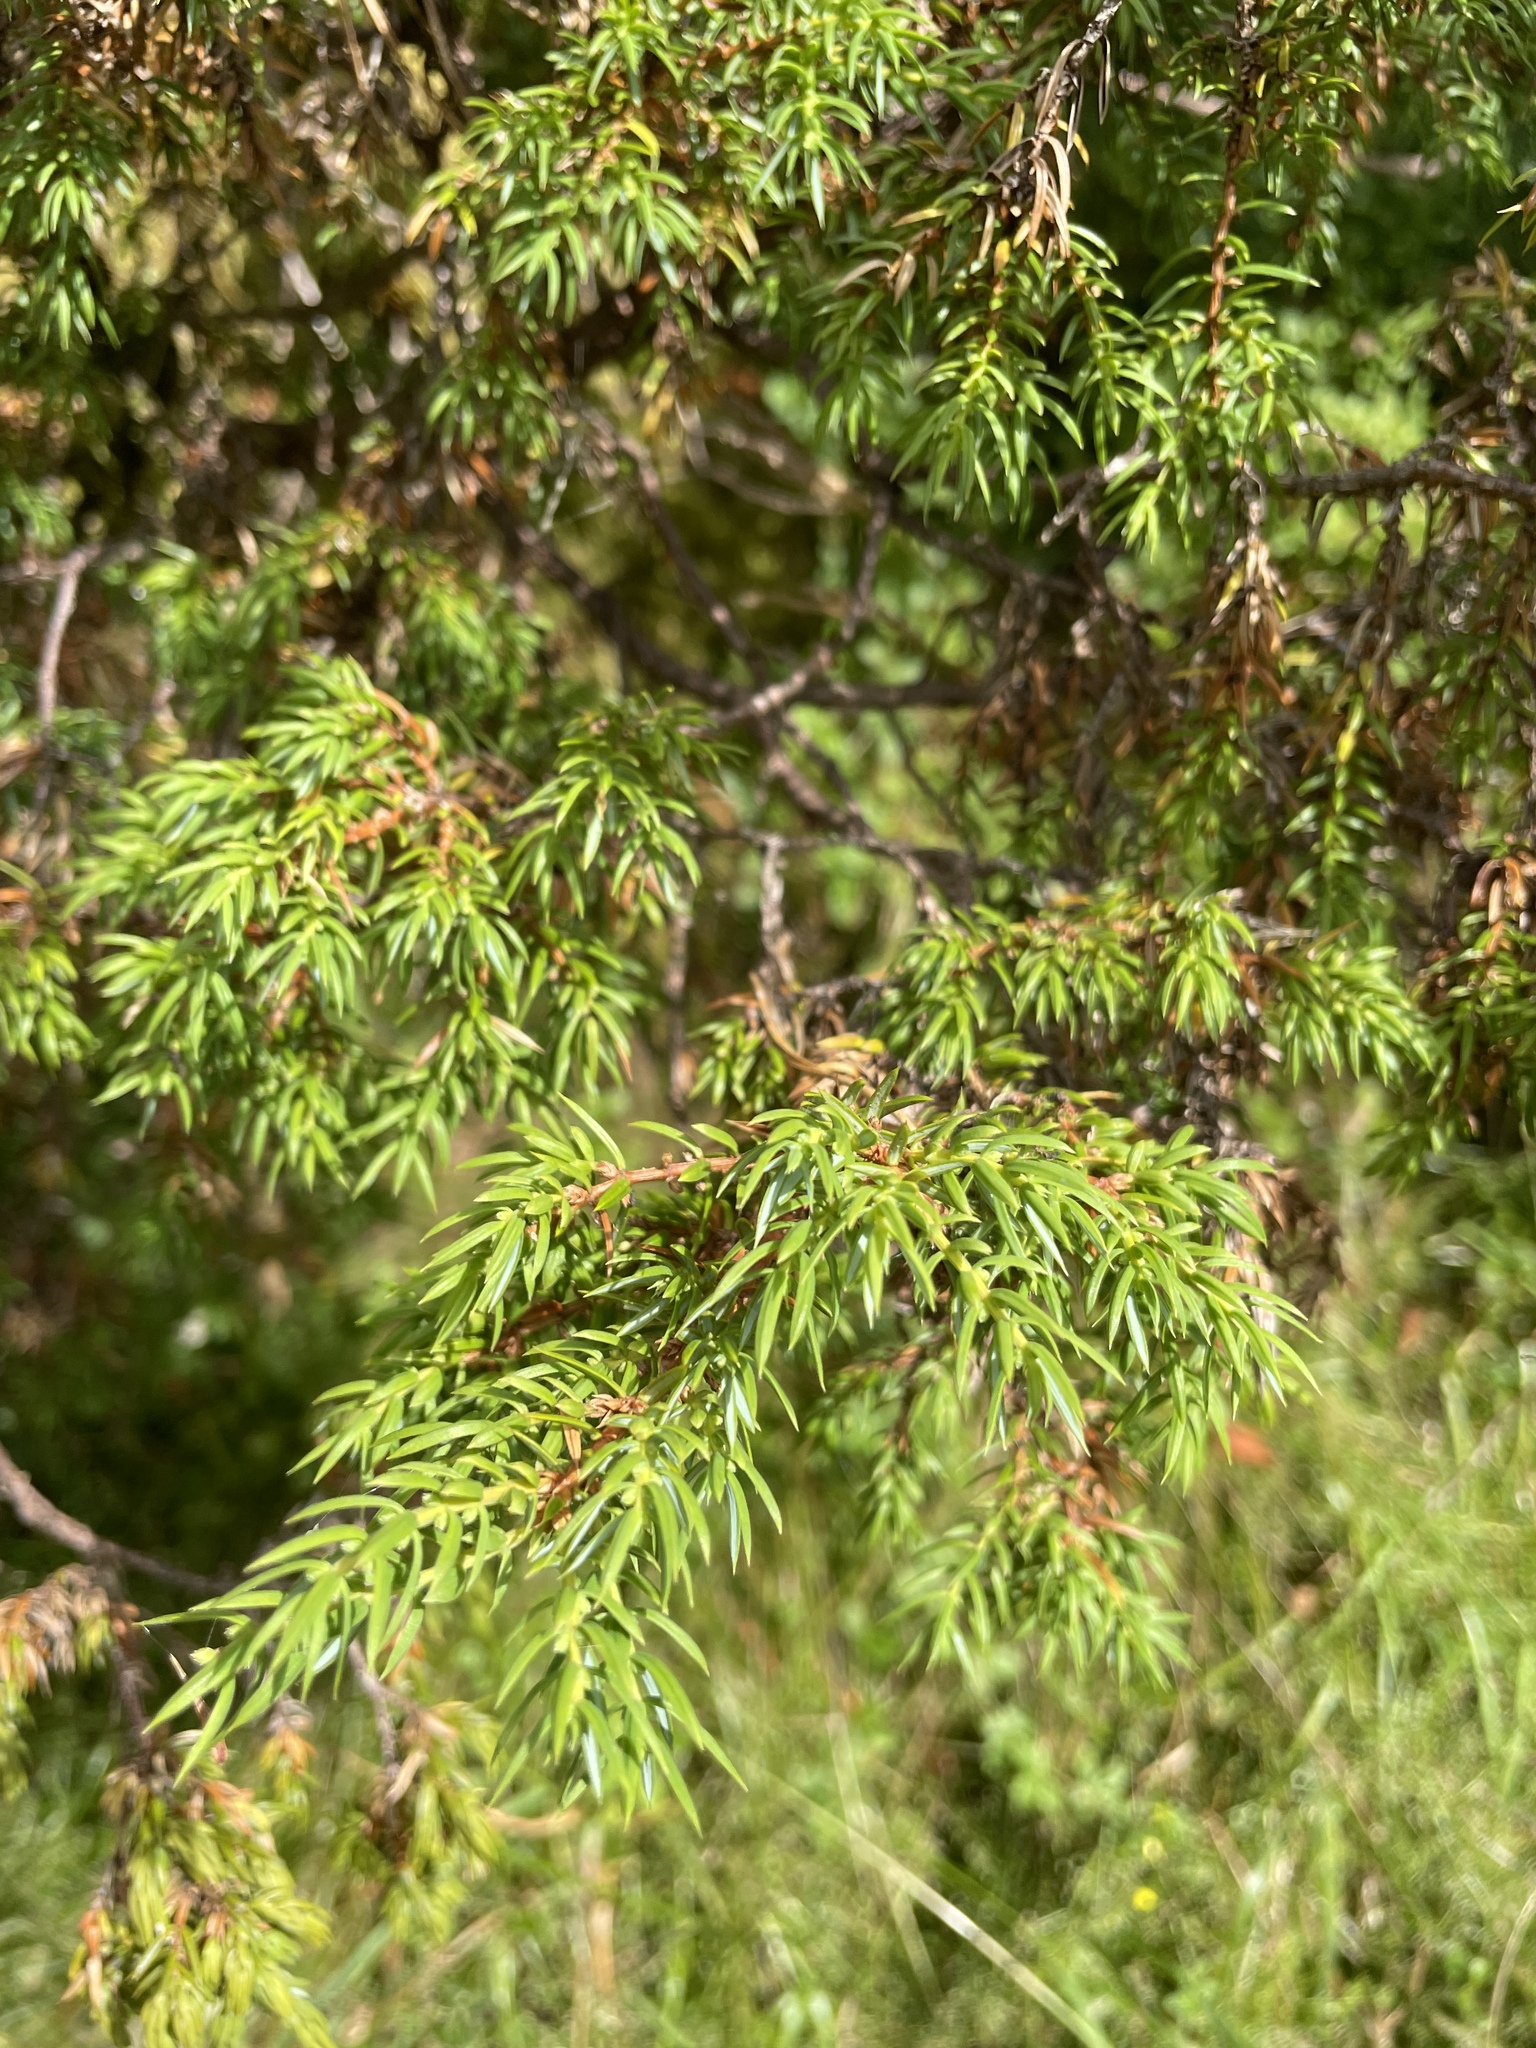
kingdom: Plantae
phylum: Tracheophyta
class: Pinopsida
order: Pinales
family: Cupressaceae
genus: Juniperus
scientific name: Juniperus communis
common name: Common juniper
